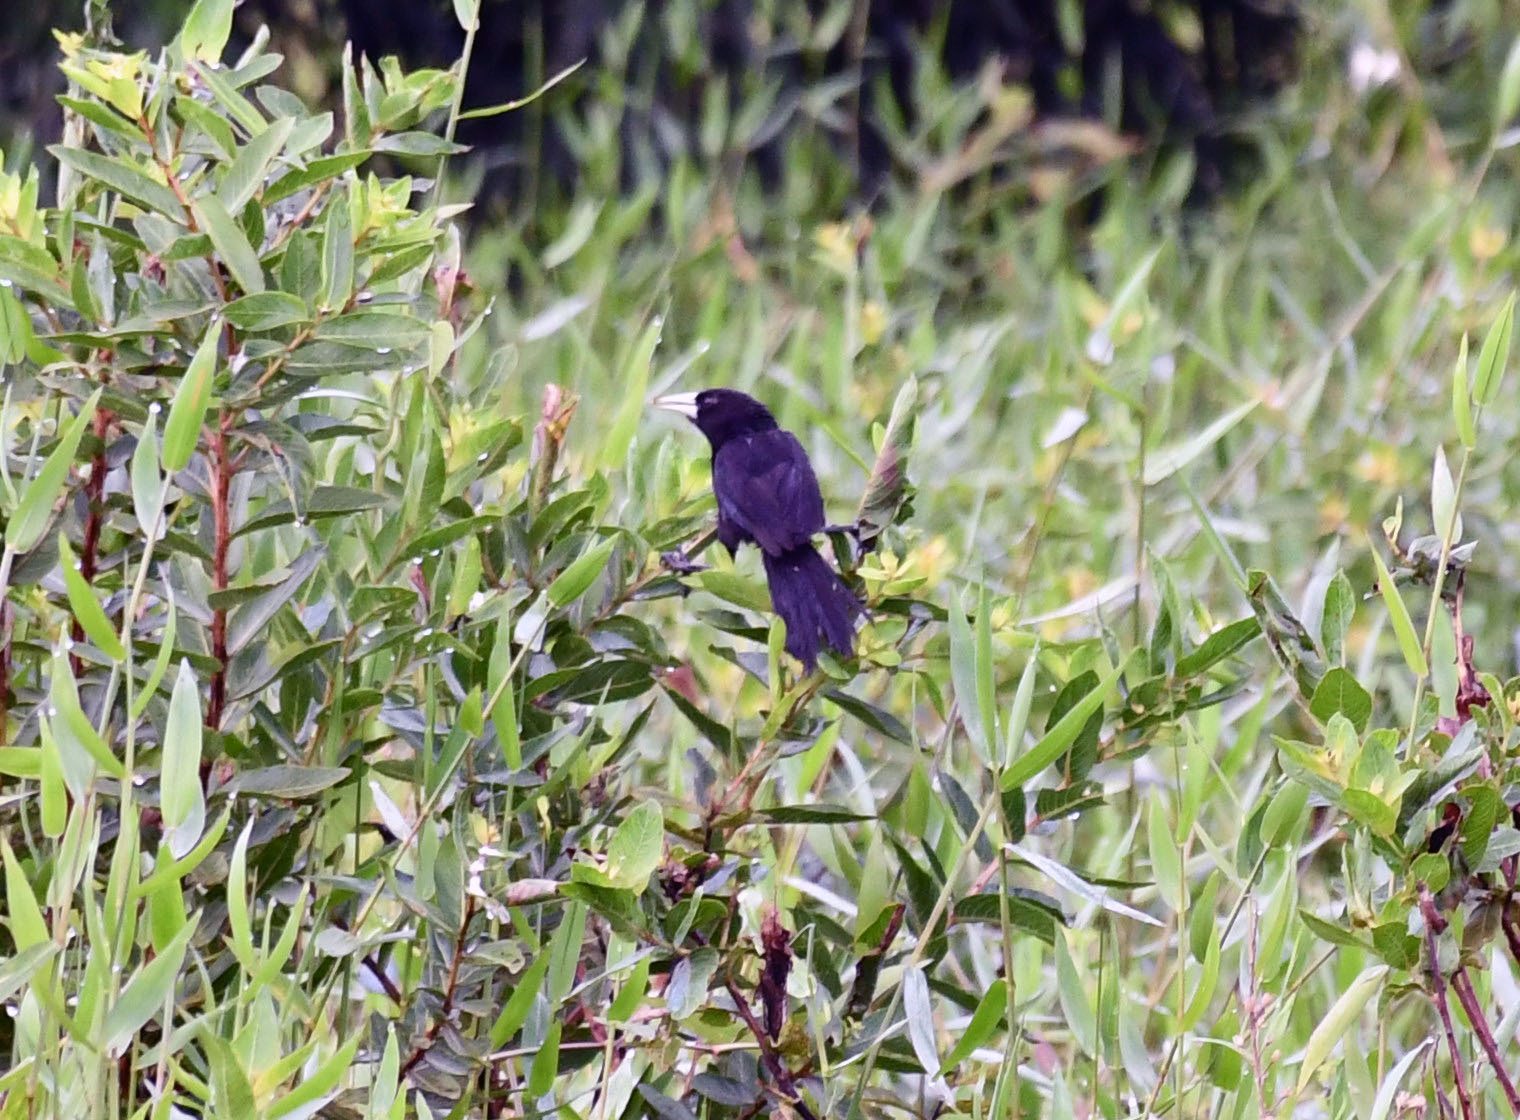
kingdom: Animalia
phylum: Chordata
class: Aves
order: Passeriformes
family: Icteridae
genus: Cacicus
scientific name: Cacicus solitarius
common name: Solitary cacique
